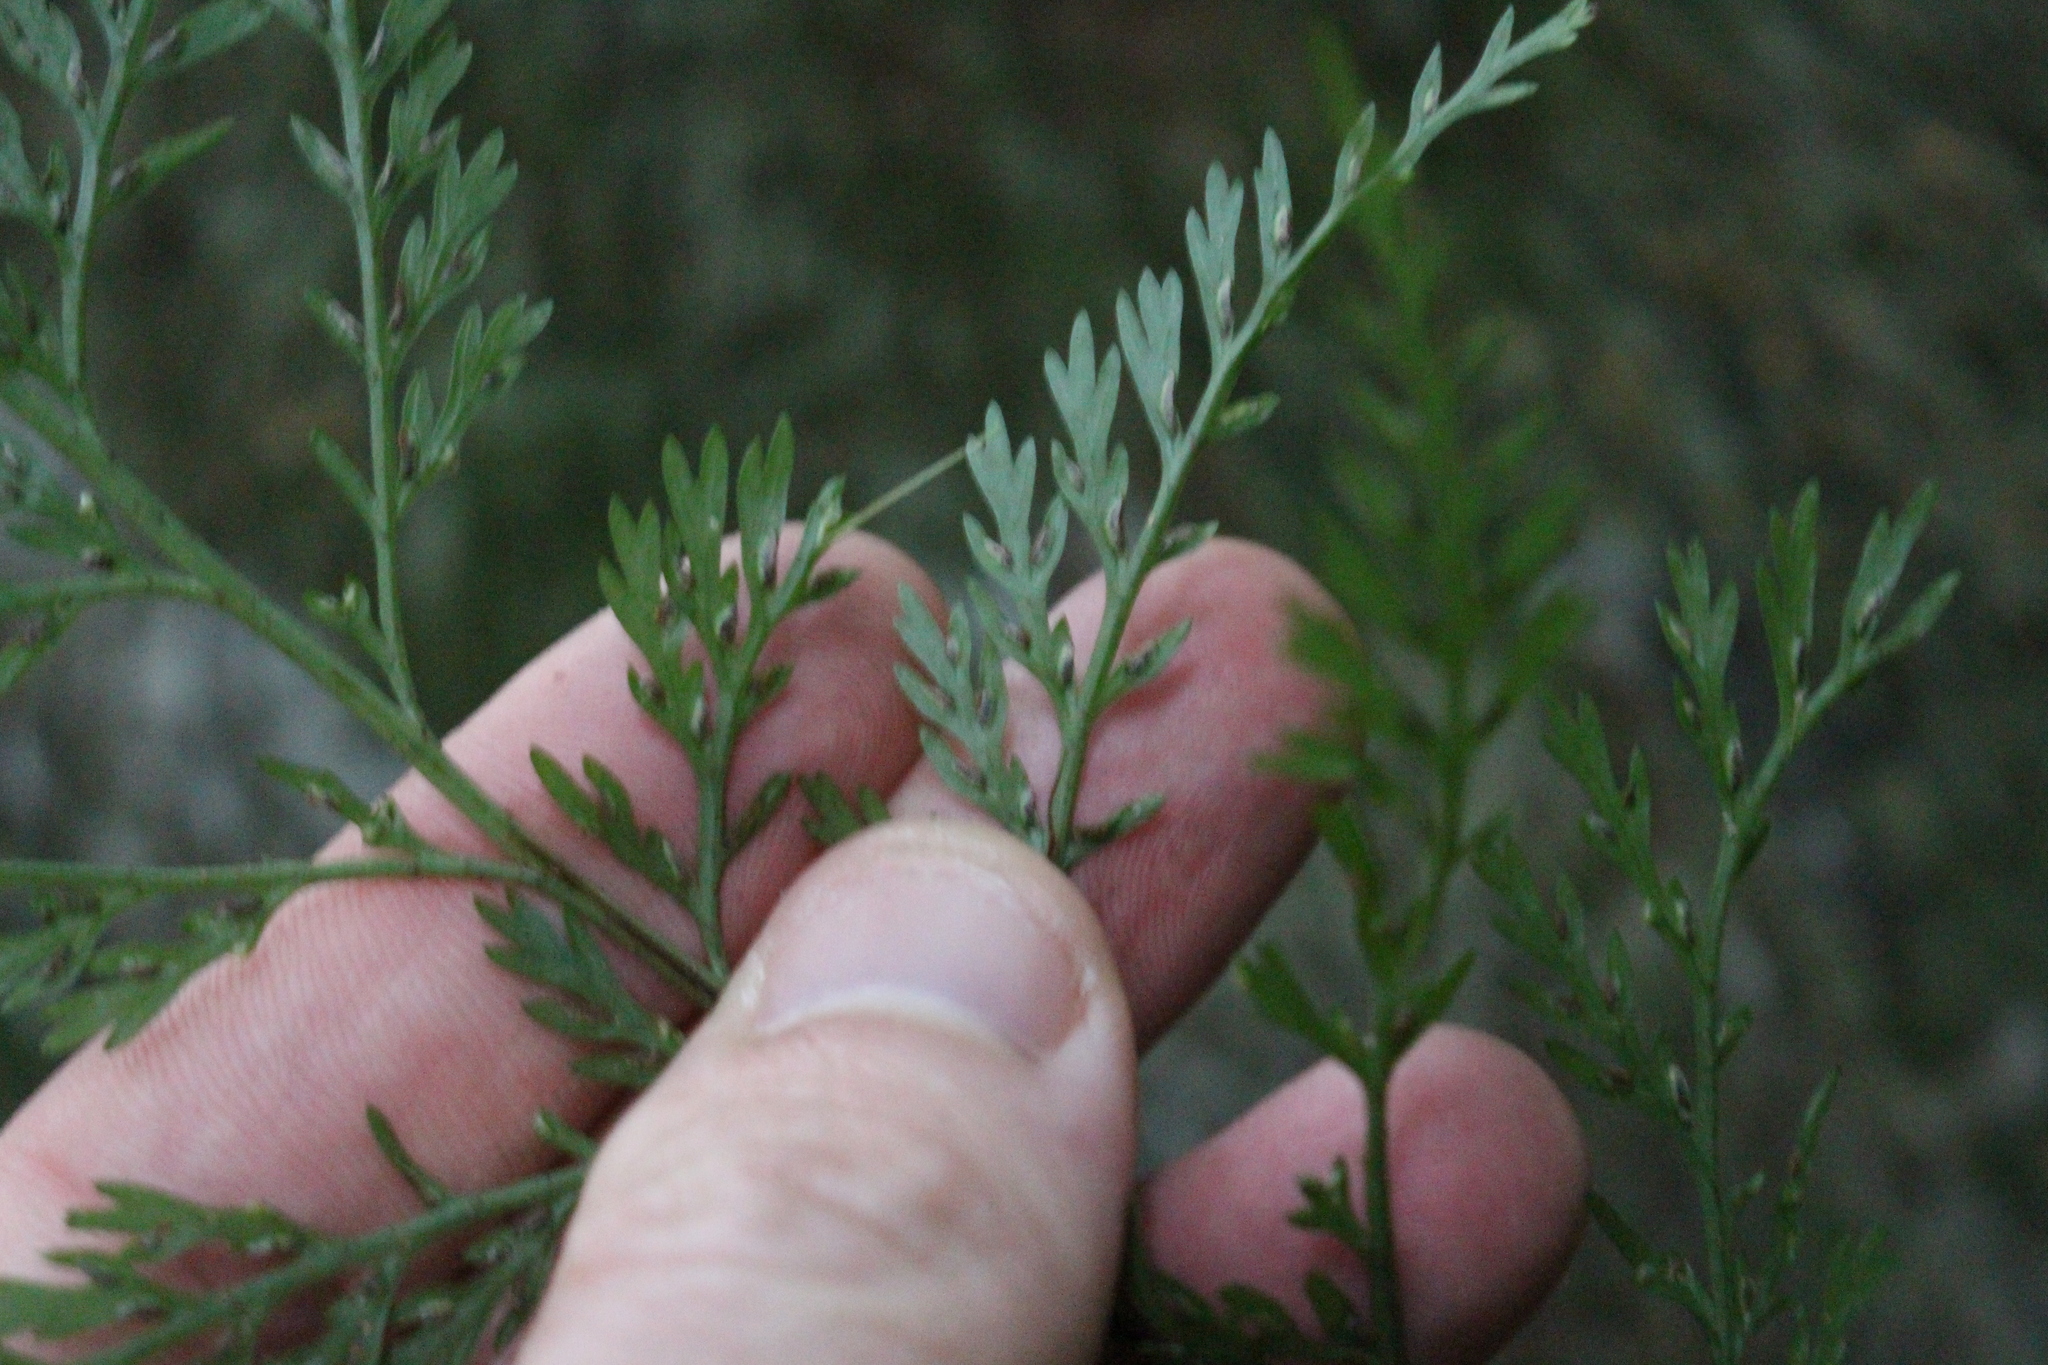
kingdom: Plantae
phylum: Tracheophyta
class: Polypodiopsida
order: Polypodiales
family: Aspleniaceae
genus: Asplenium
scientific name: Asplenium
